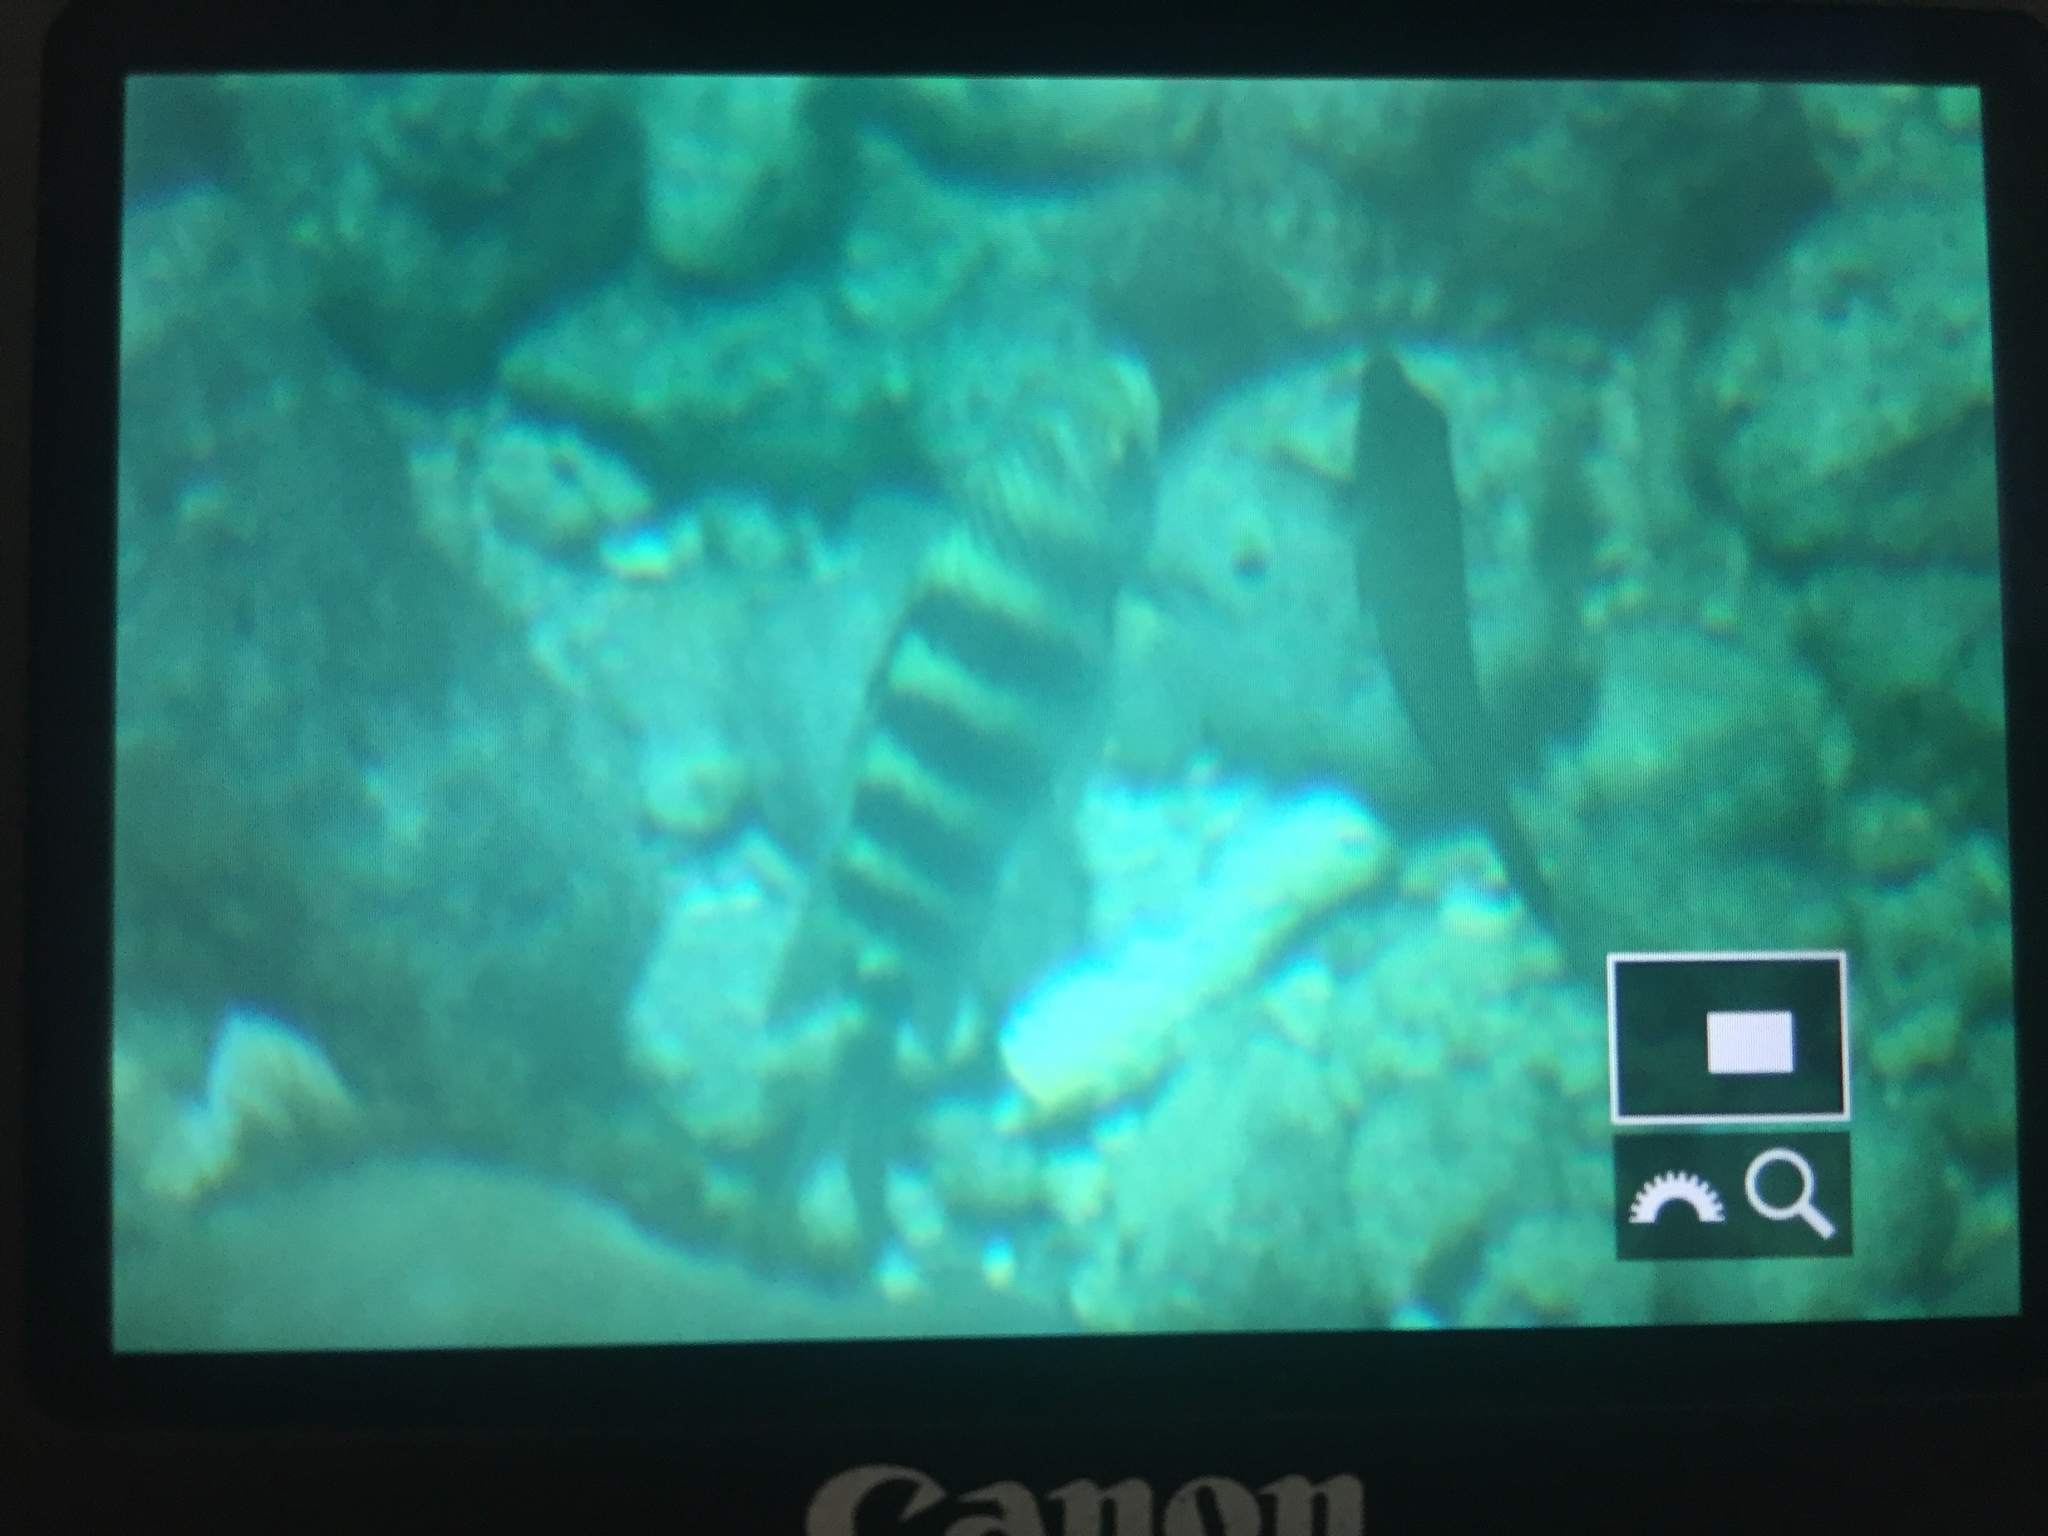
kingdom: Animalia
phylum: Chordata
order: Perciformes
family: Pomacentridae
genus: Abudefduf
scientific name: Abudefduf septemfasciatus
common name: Banded sergeant
